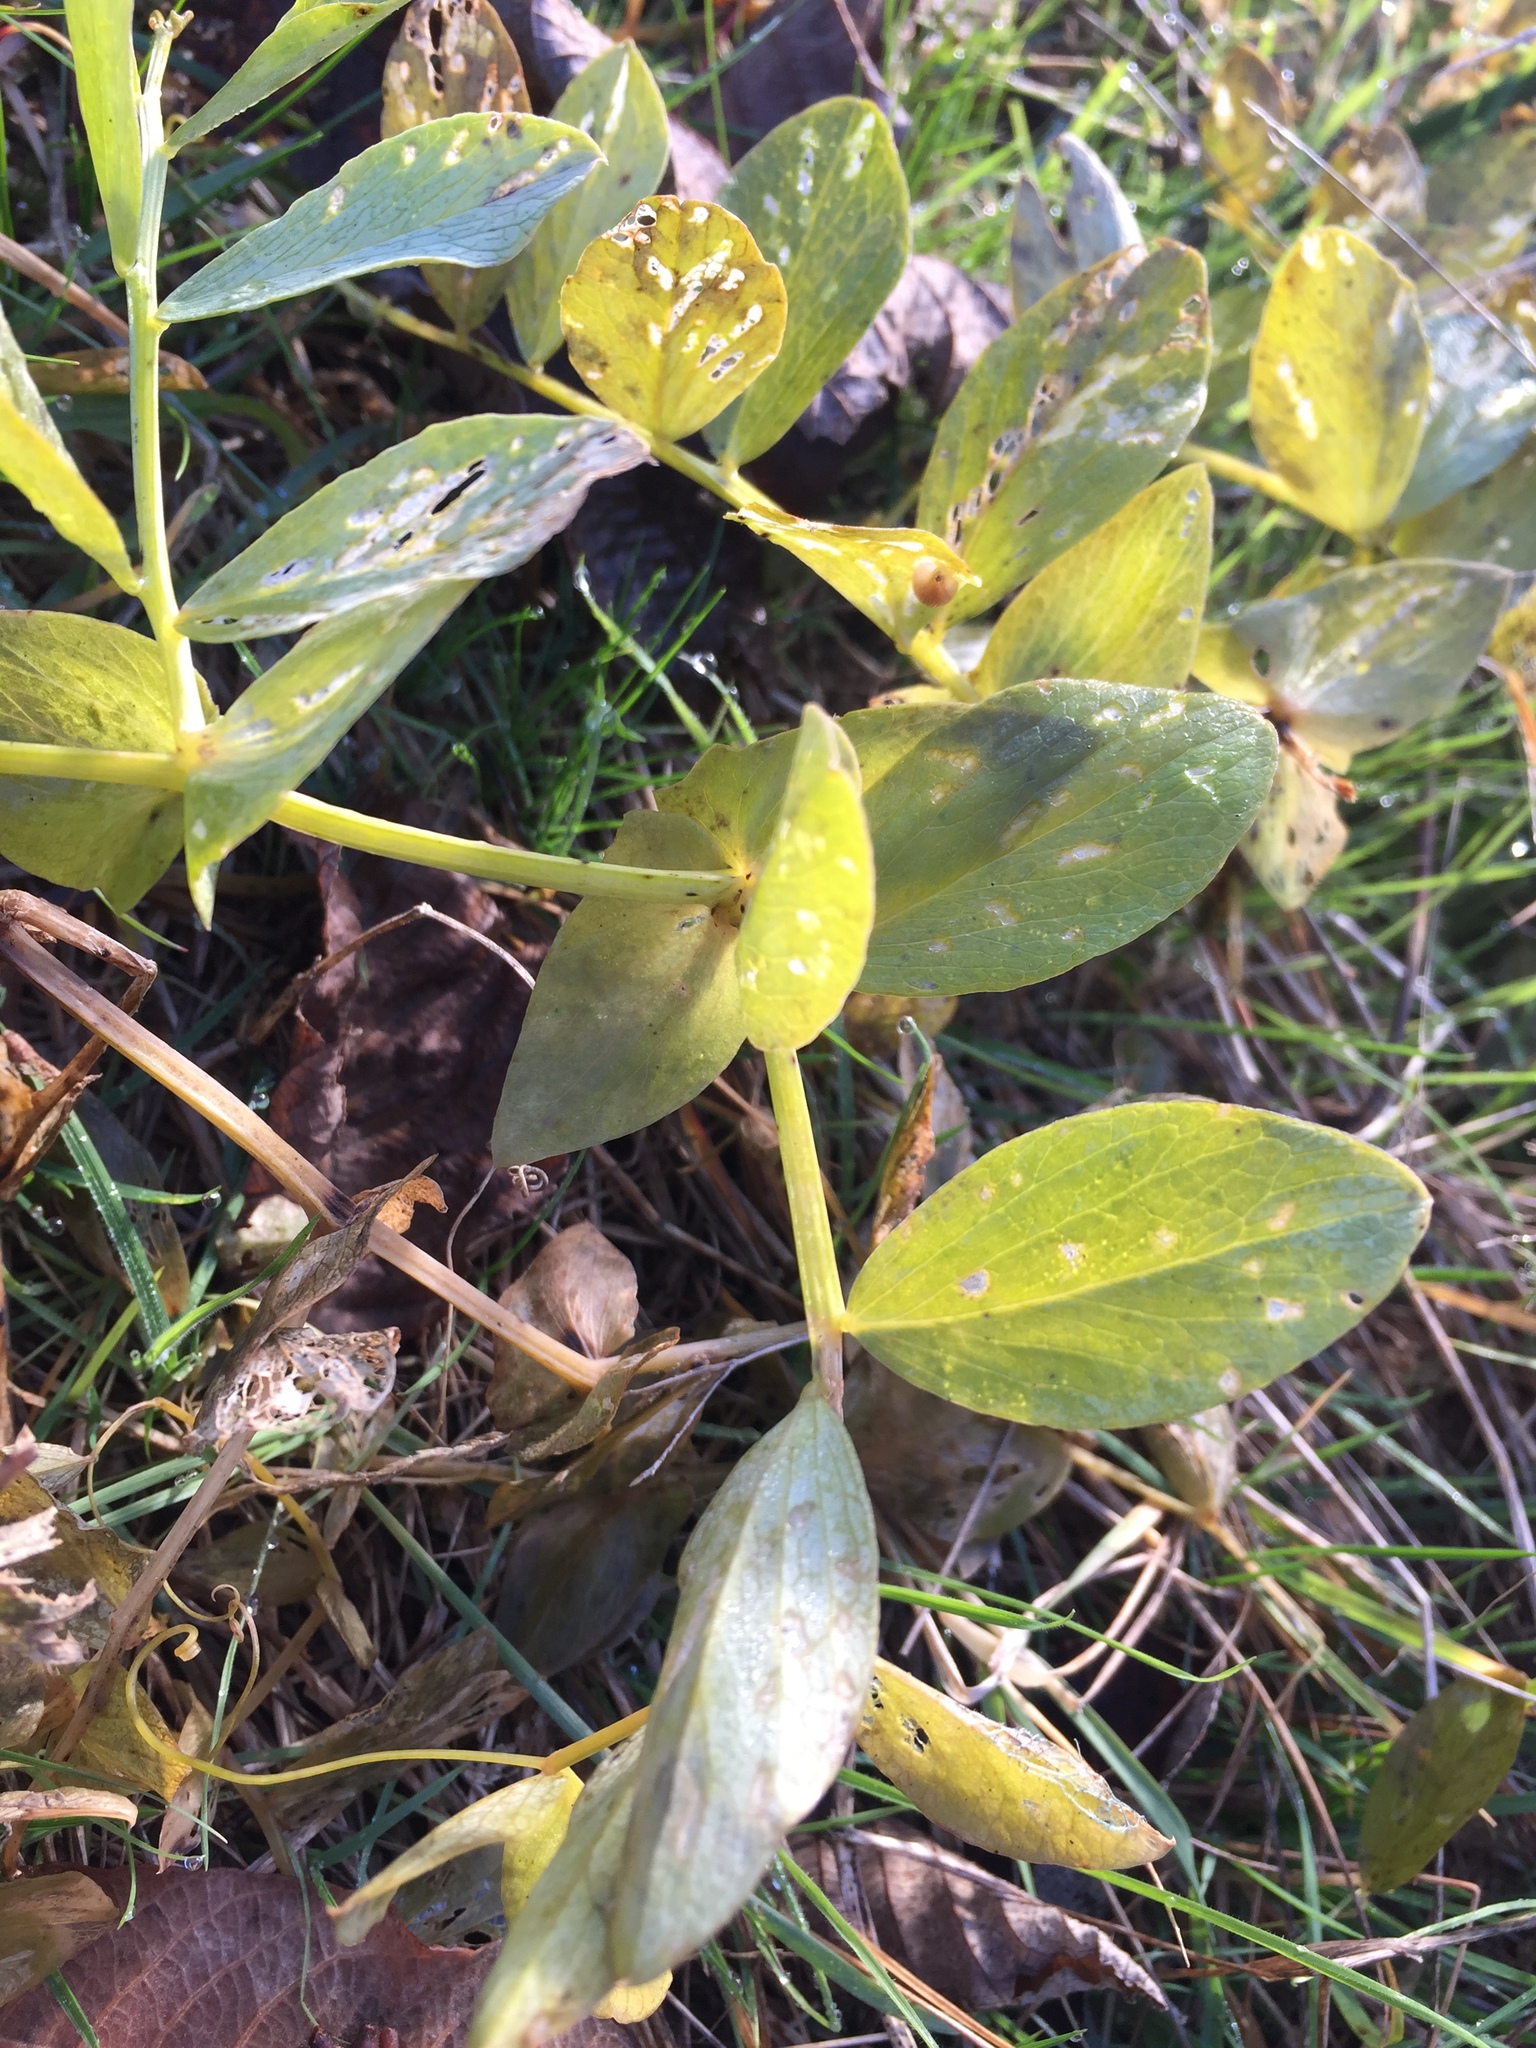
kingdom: Plantae
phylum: Tracheophyta
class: Magnoliopsida
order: Fabales
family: Fabaceae
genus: Lathyrus
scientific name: Lathyrus japonicus
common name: Sea pea
